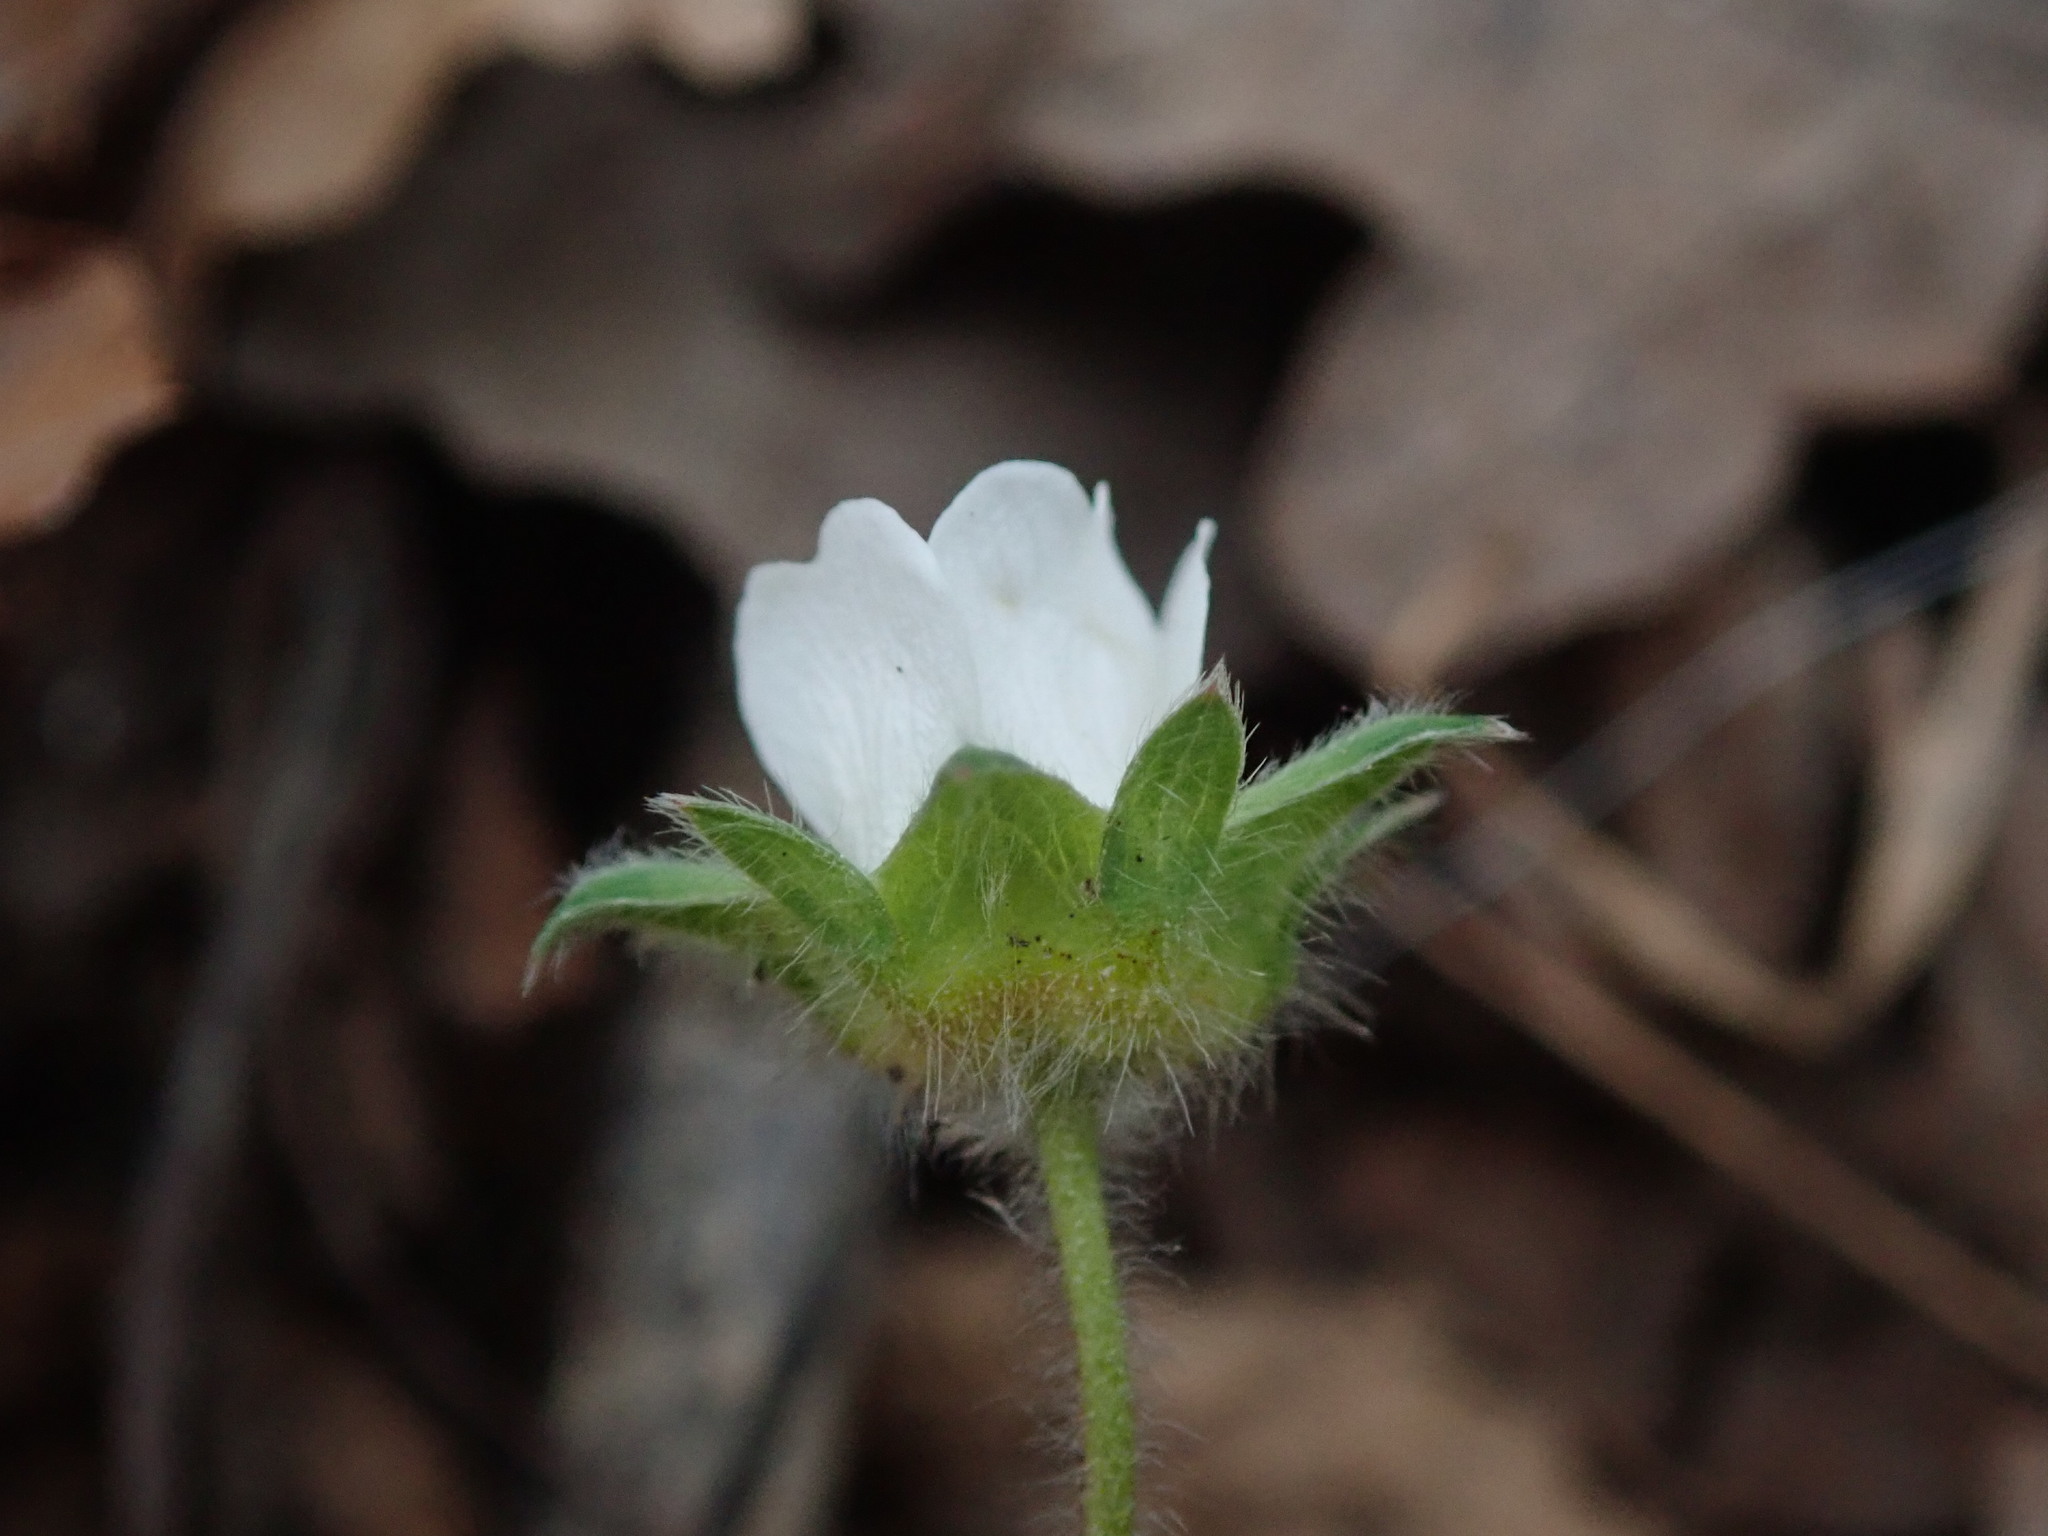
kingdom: Plantae
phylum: Tracheophyta
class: Magnoliopsida
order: Rosales
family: Rosaceae
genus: Potentilla
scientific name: Potentilla sterilis
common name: Barren strawberry
